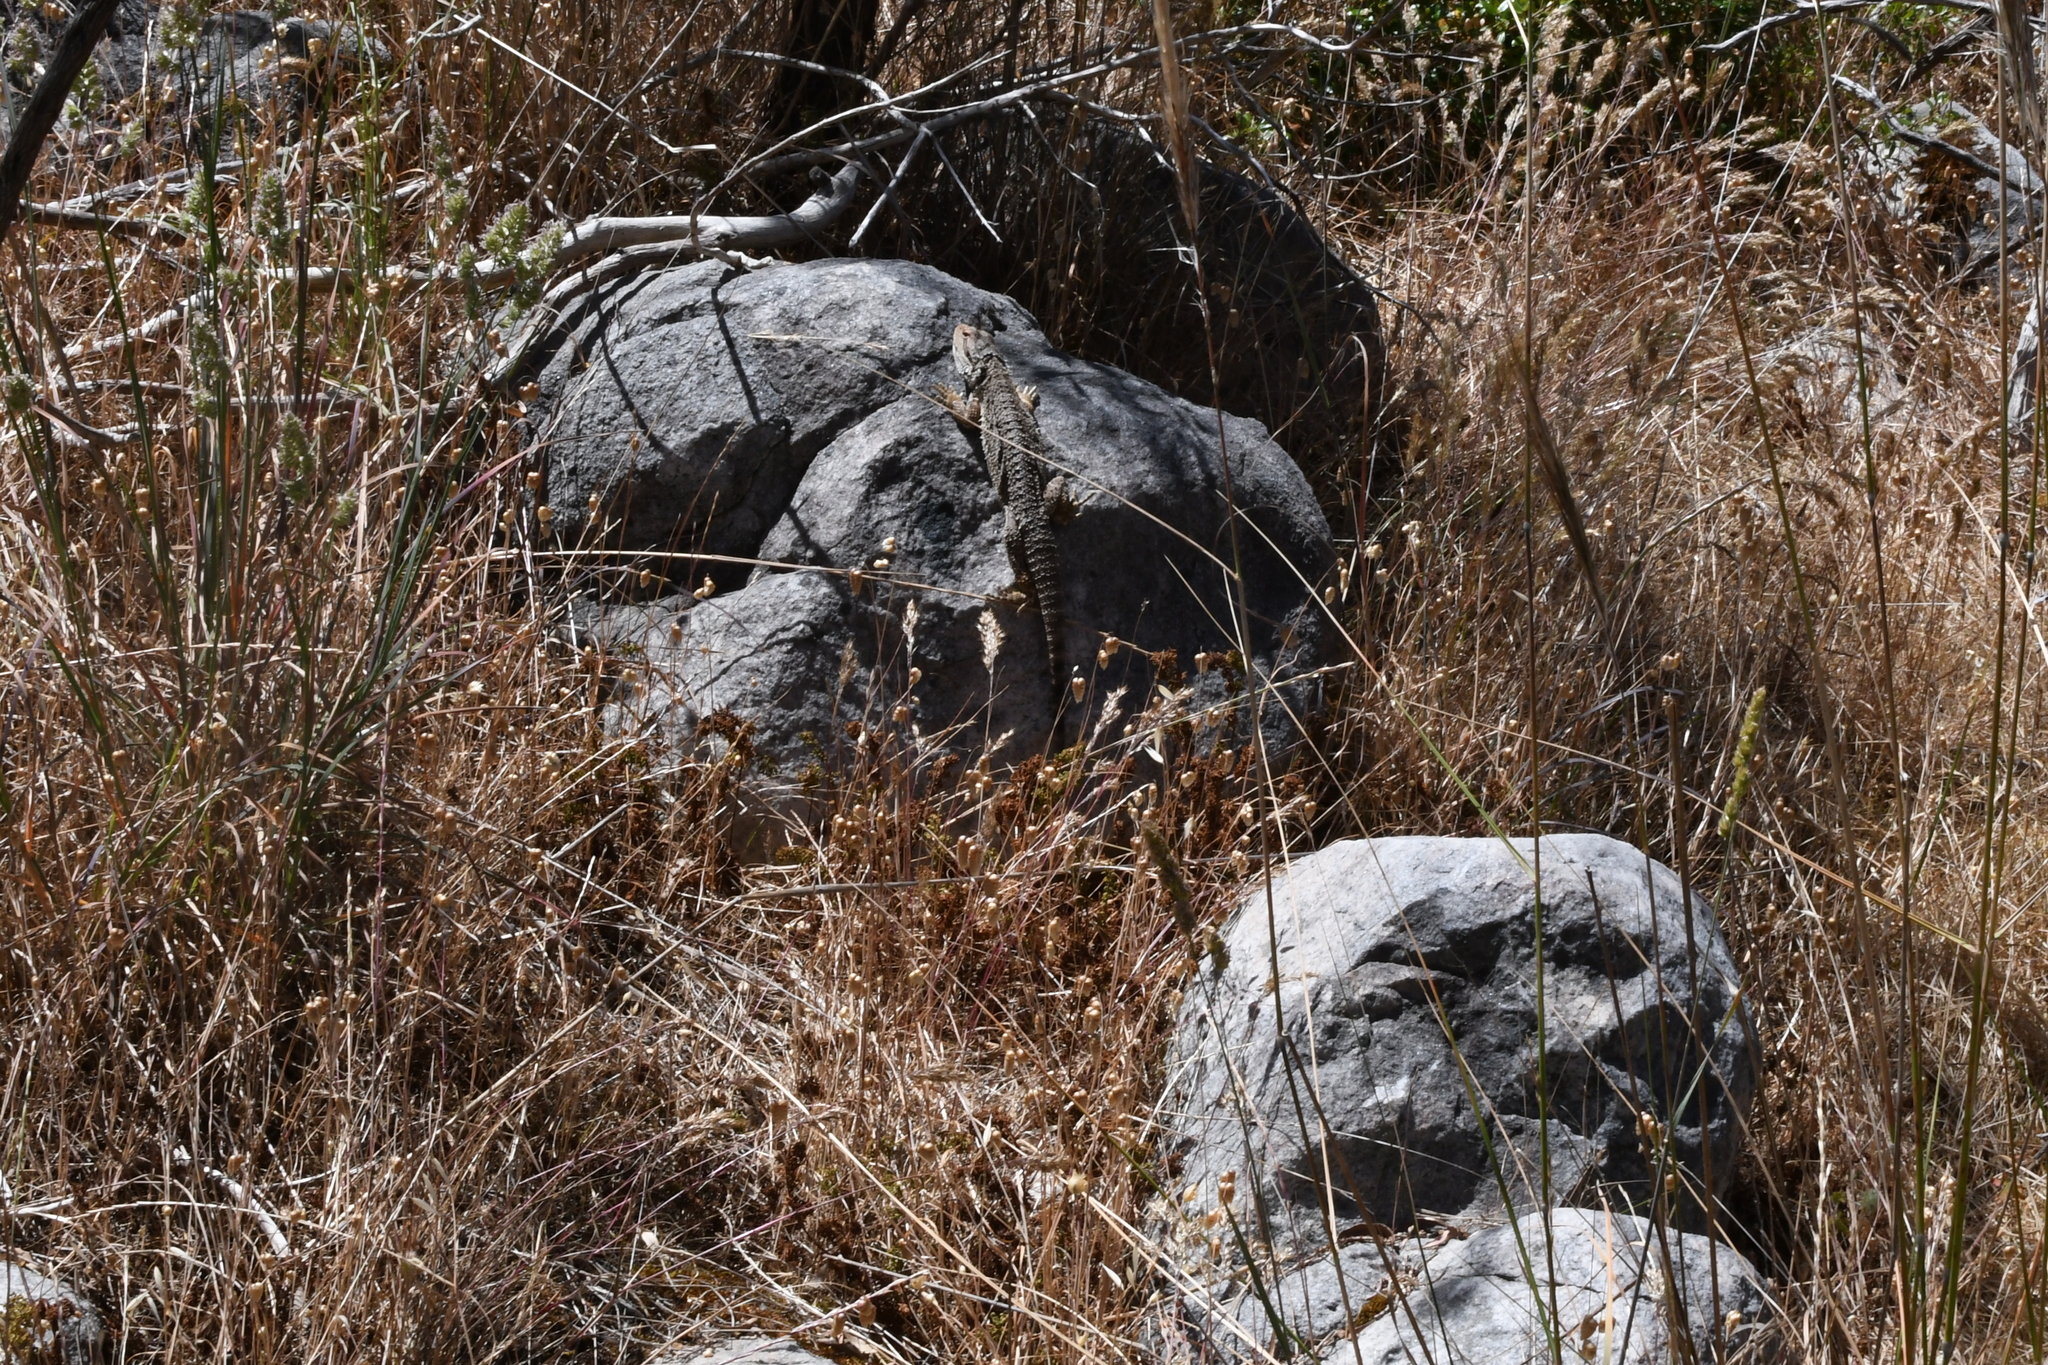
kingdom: Animalia
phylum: Chordata
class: Squamata
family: Agamidae
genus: Pogona
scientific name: Pogona barbata
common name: Bearded dragon
